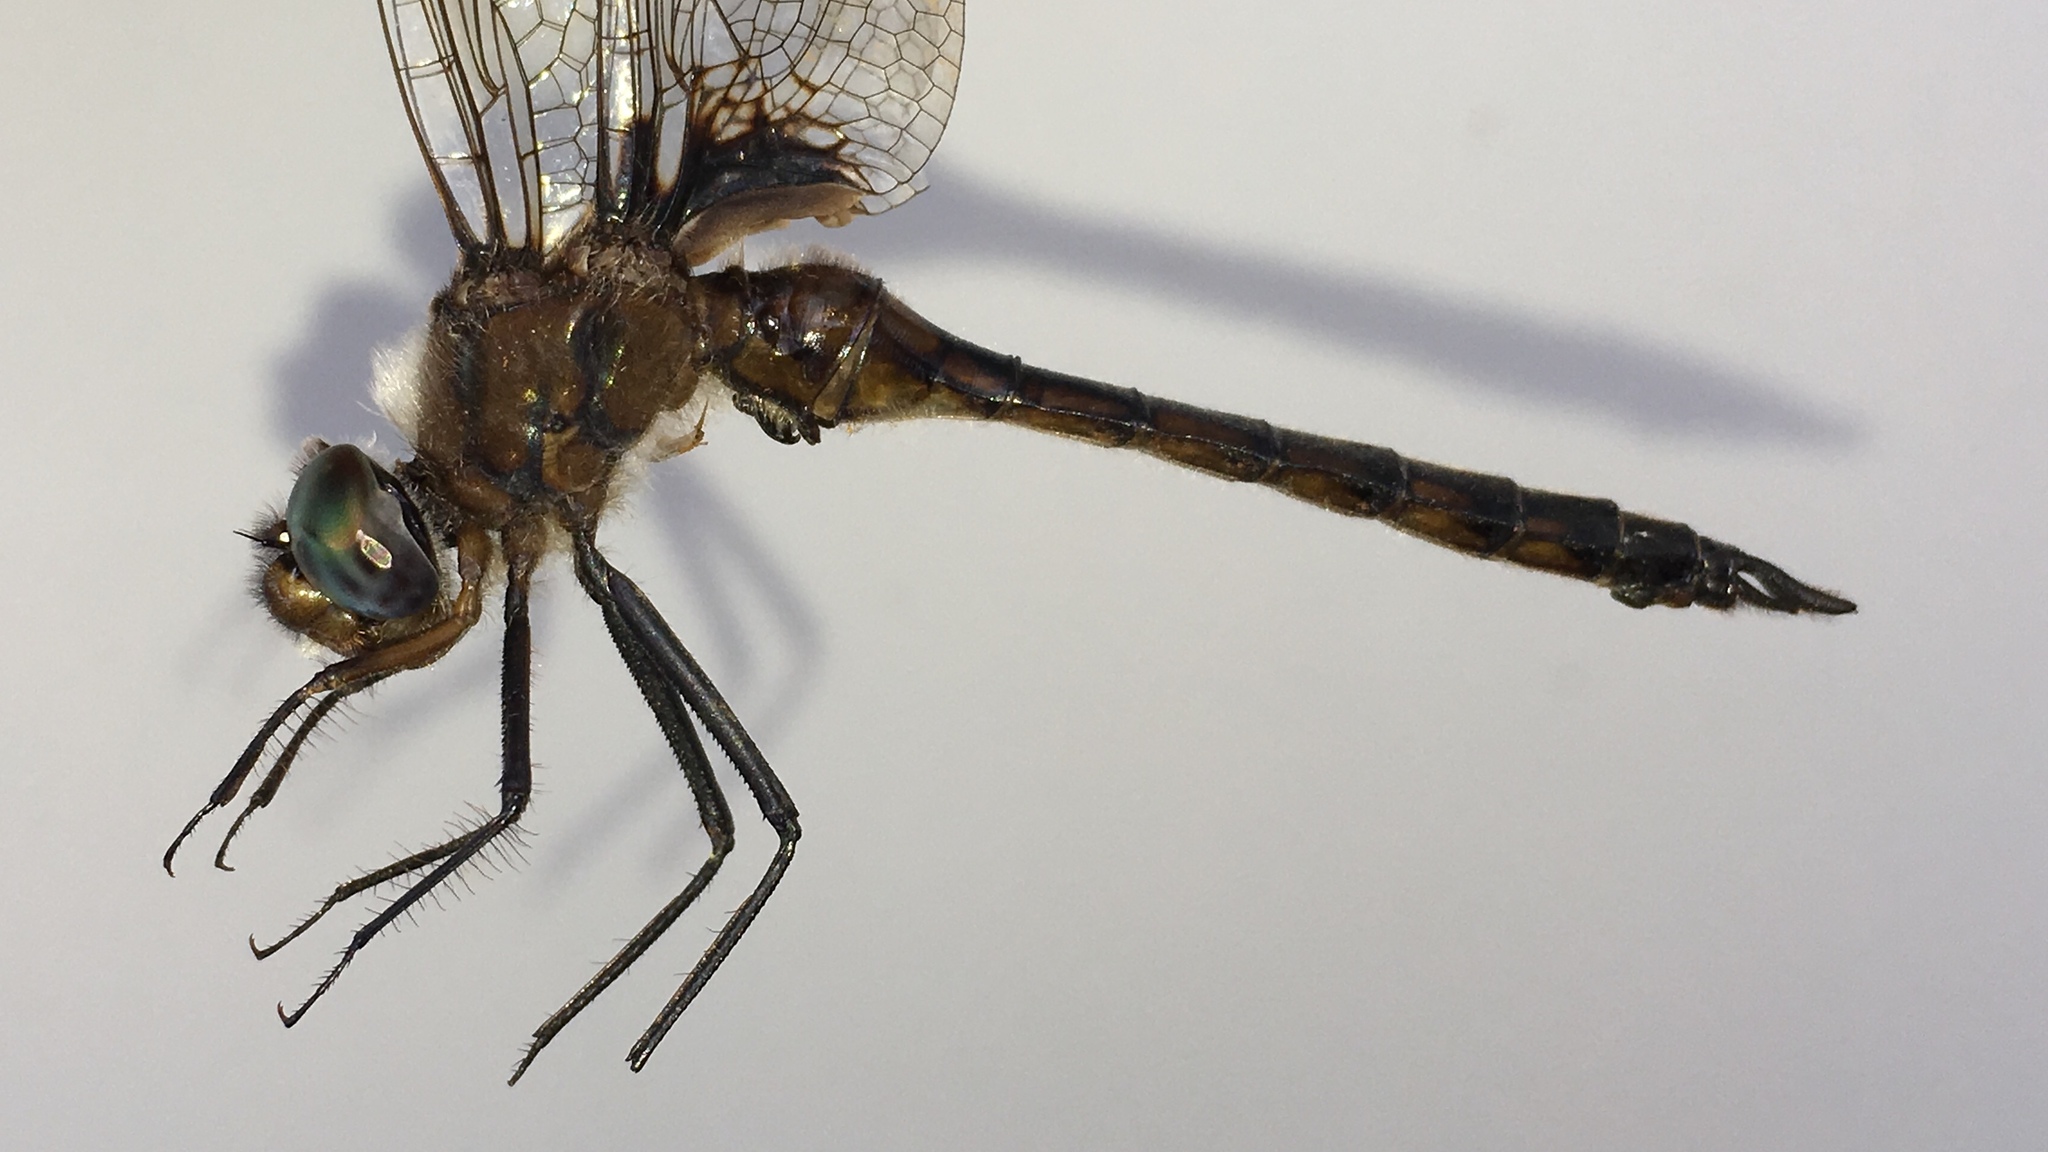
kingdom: Animalia
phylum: Arthropoda
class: Insecta
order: Odonata
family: Corduliidae
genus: Epitheca
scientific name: Epitheca cynosura
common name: Common baskettail
